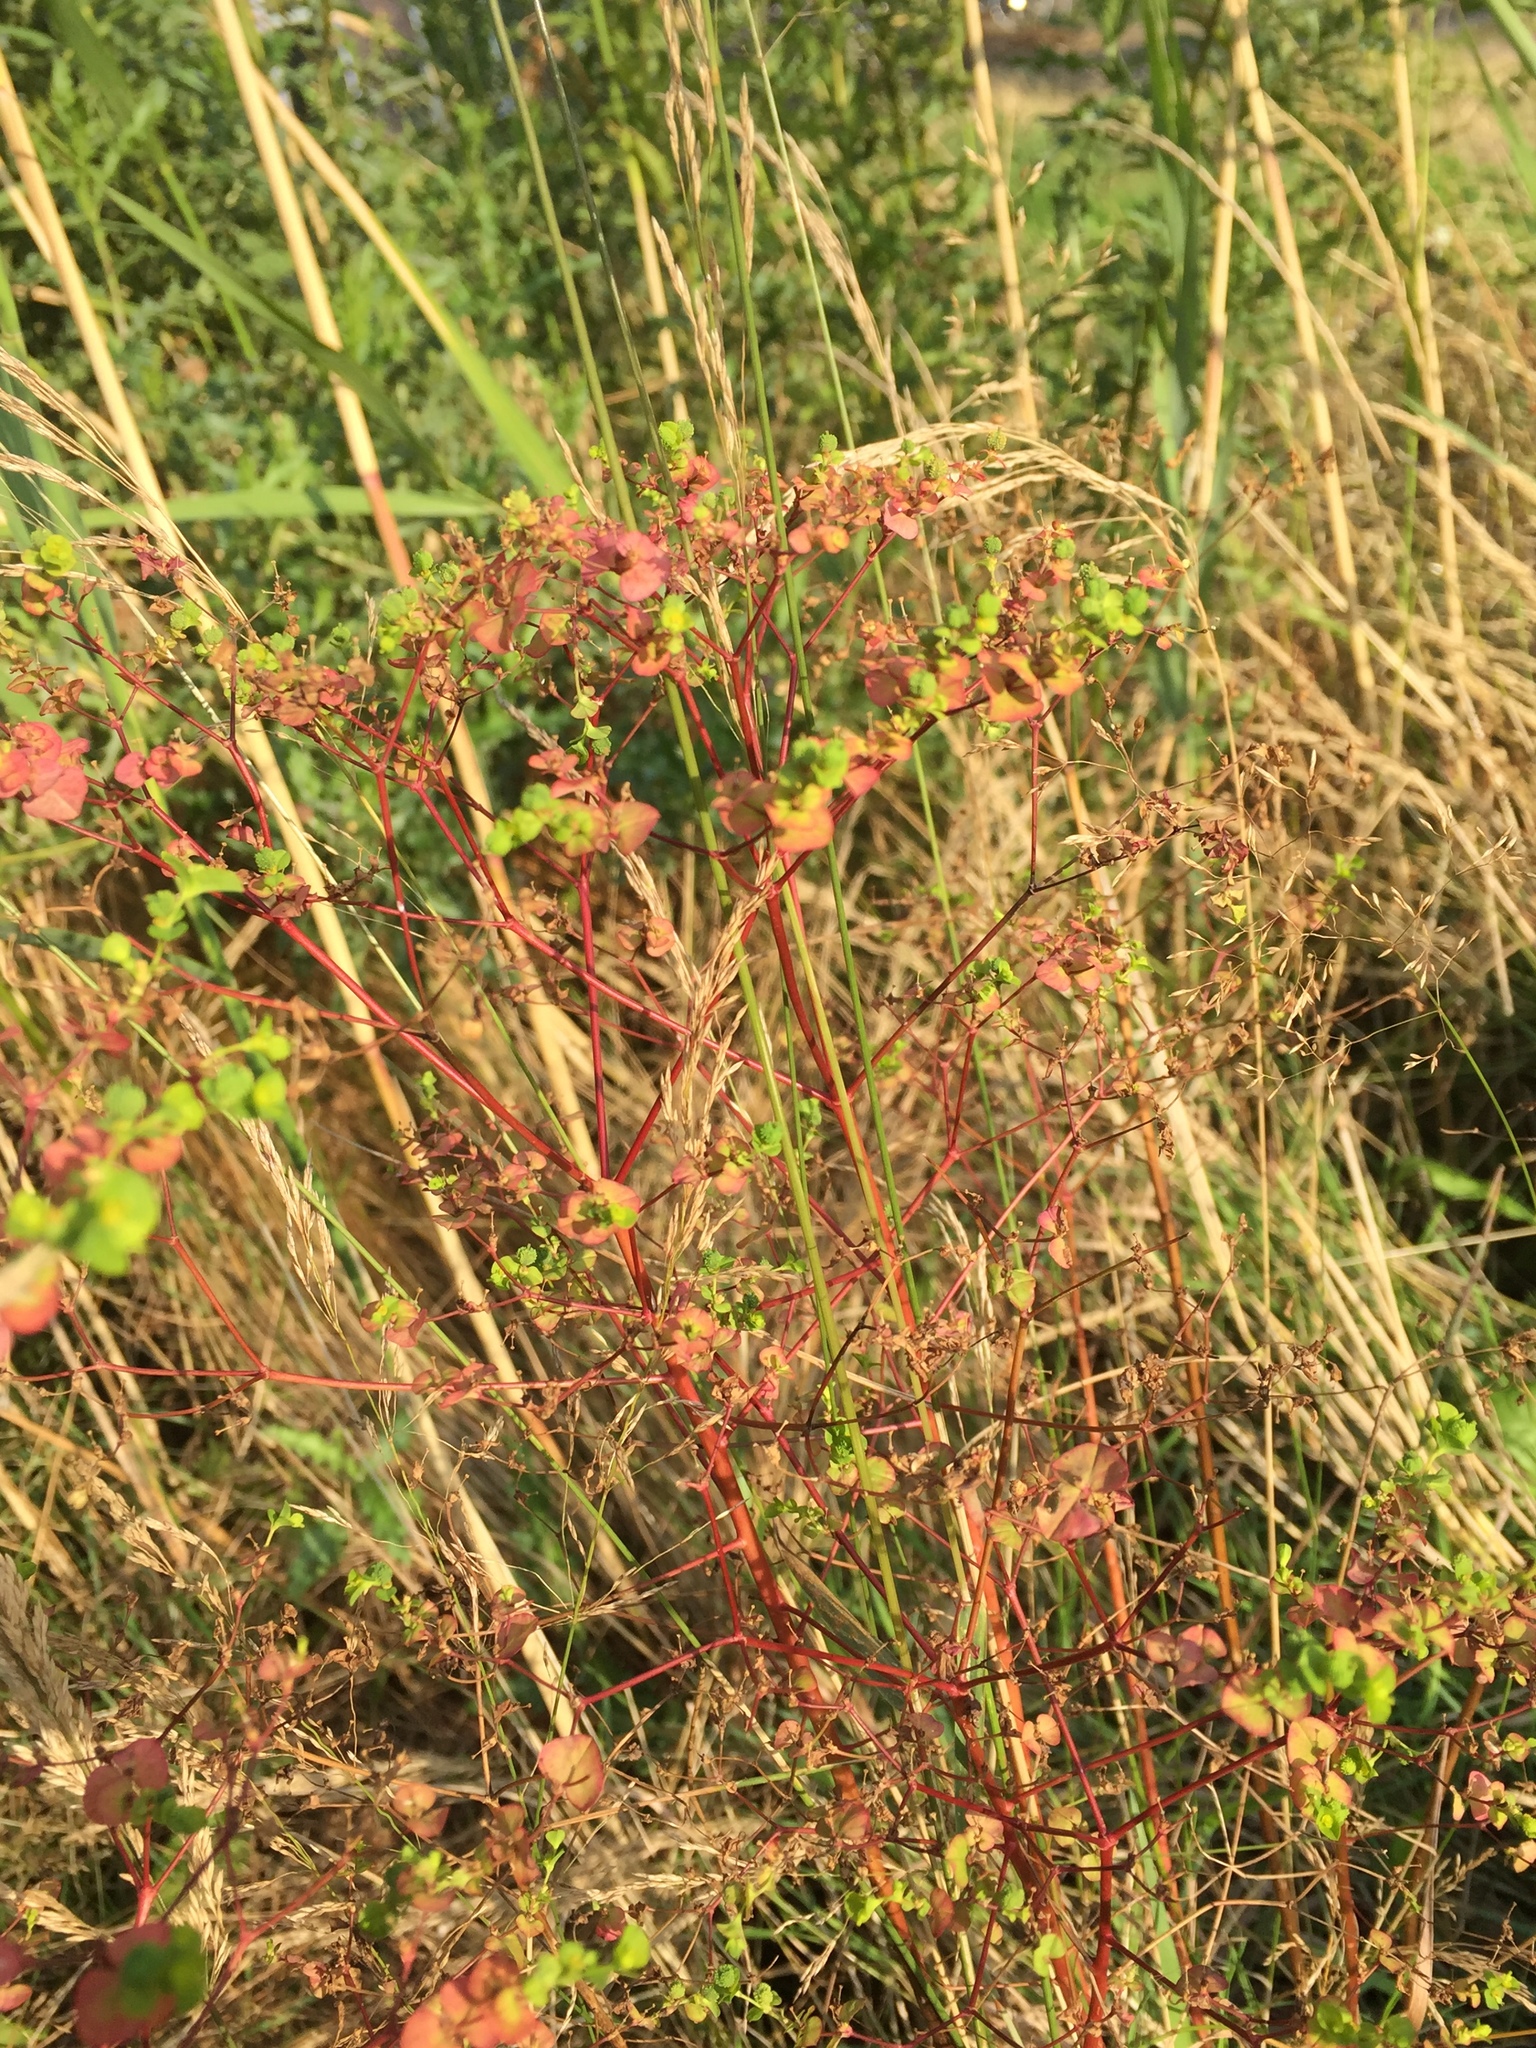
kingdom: Plantae
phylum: Tracheophyta
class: Magnoliopsida
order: Malpighiales
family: Euphorbiaceae
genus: Euphorbia
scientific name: Euphorbia stricta
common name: Upright spurge
